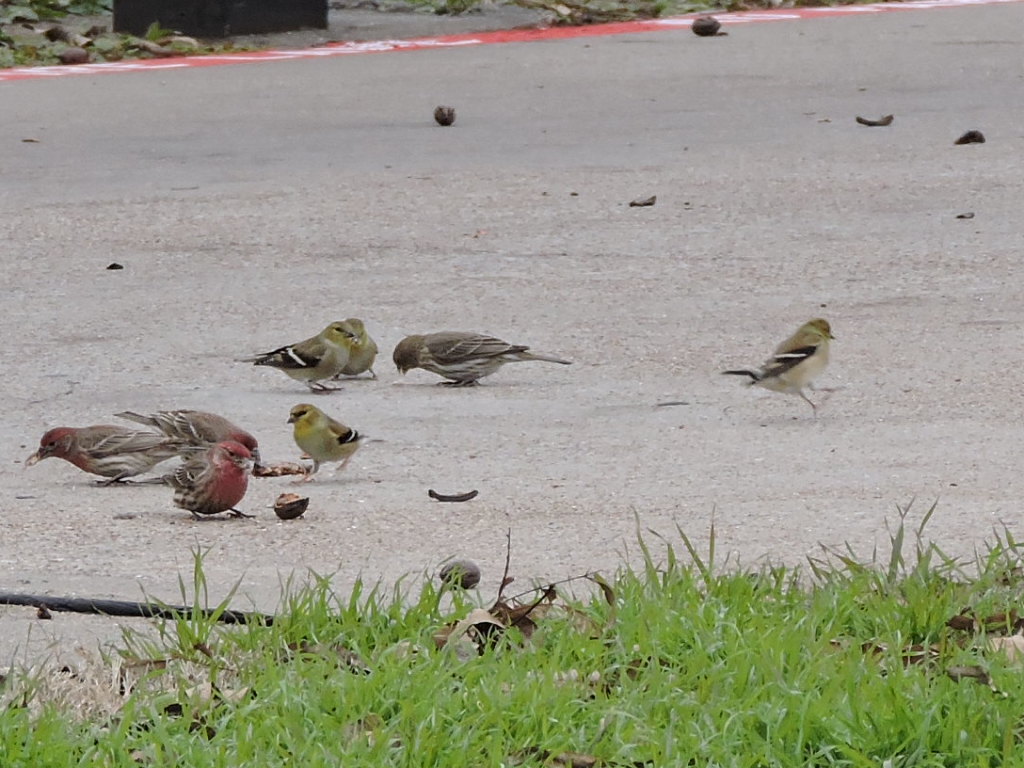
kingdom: Animalia
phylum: Chordata
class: Aves
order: Passeriformes
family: Fringillidae
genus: Spinus
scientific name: Spinus tristis
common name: American goldfinch
